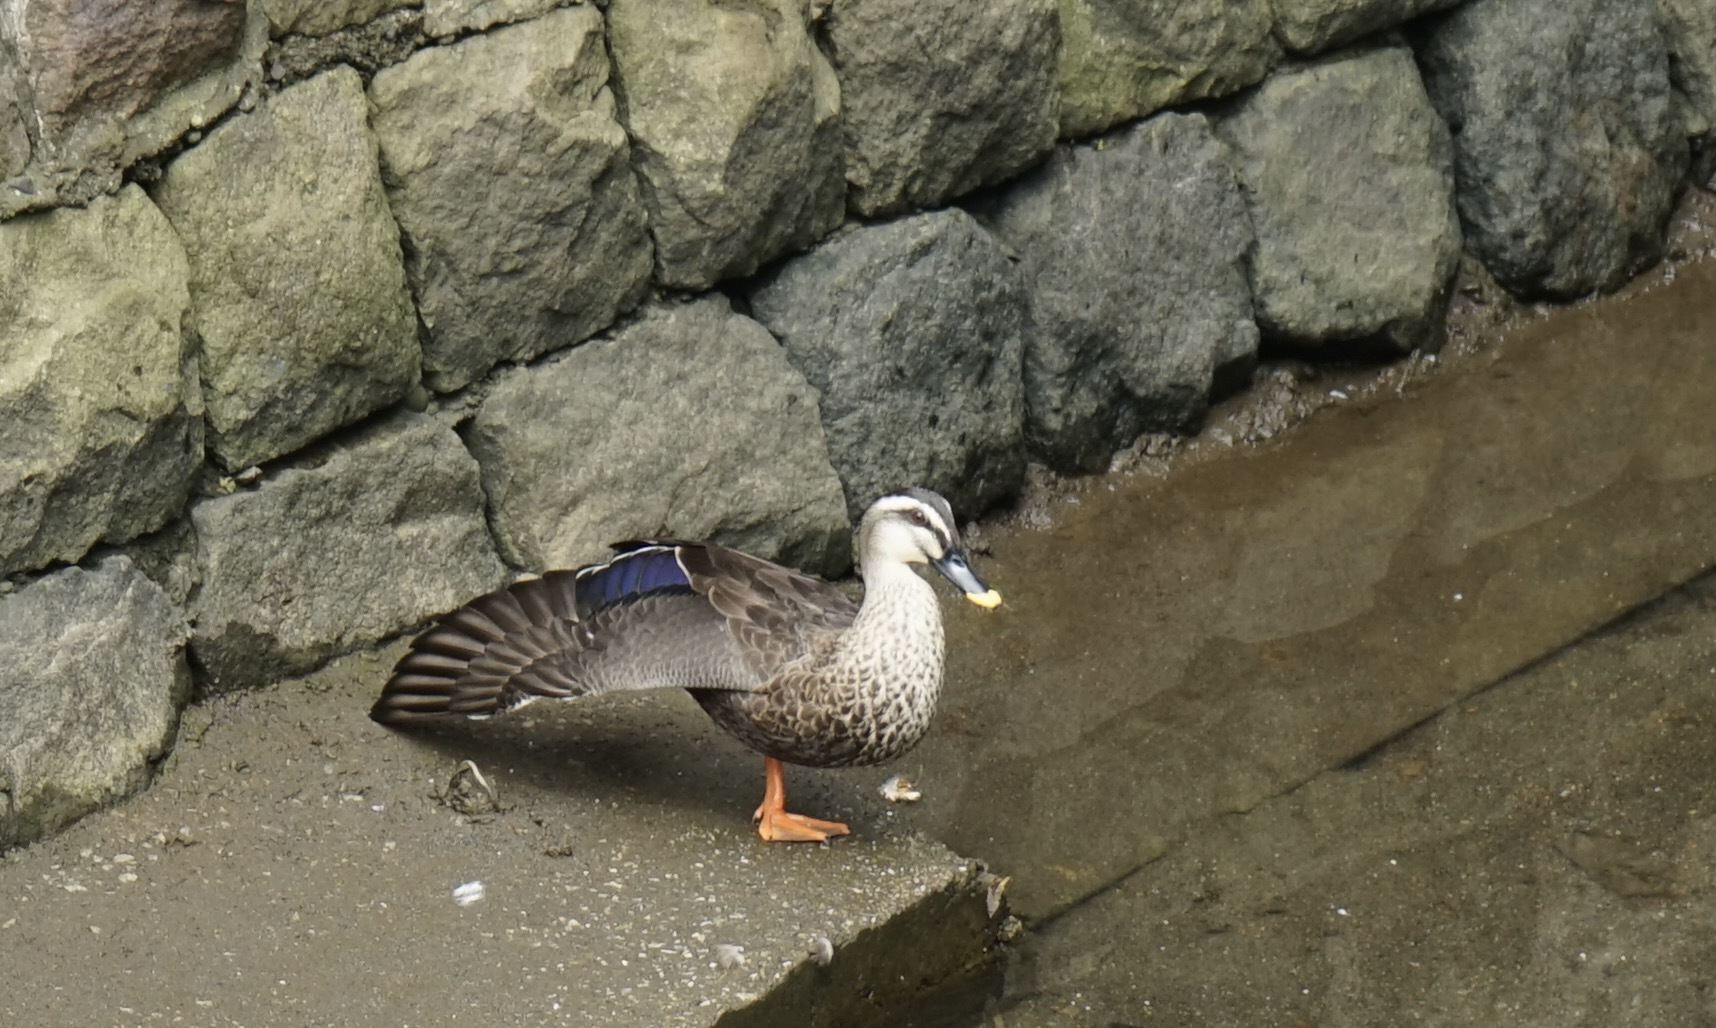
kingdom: Animalia
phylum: Chordata
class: Aves
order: Anseriformes
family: Anatidae
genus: Anas
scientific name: Anas zonorhyncha
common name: Eastern spot-billed duck
